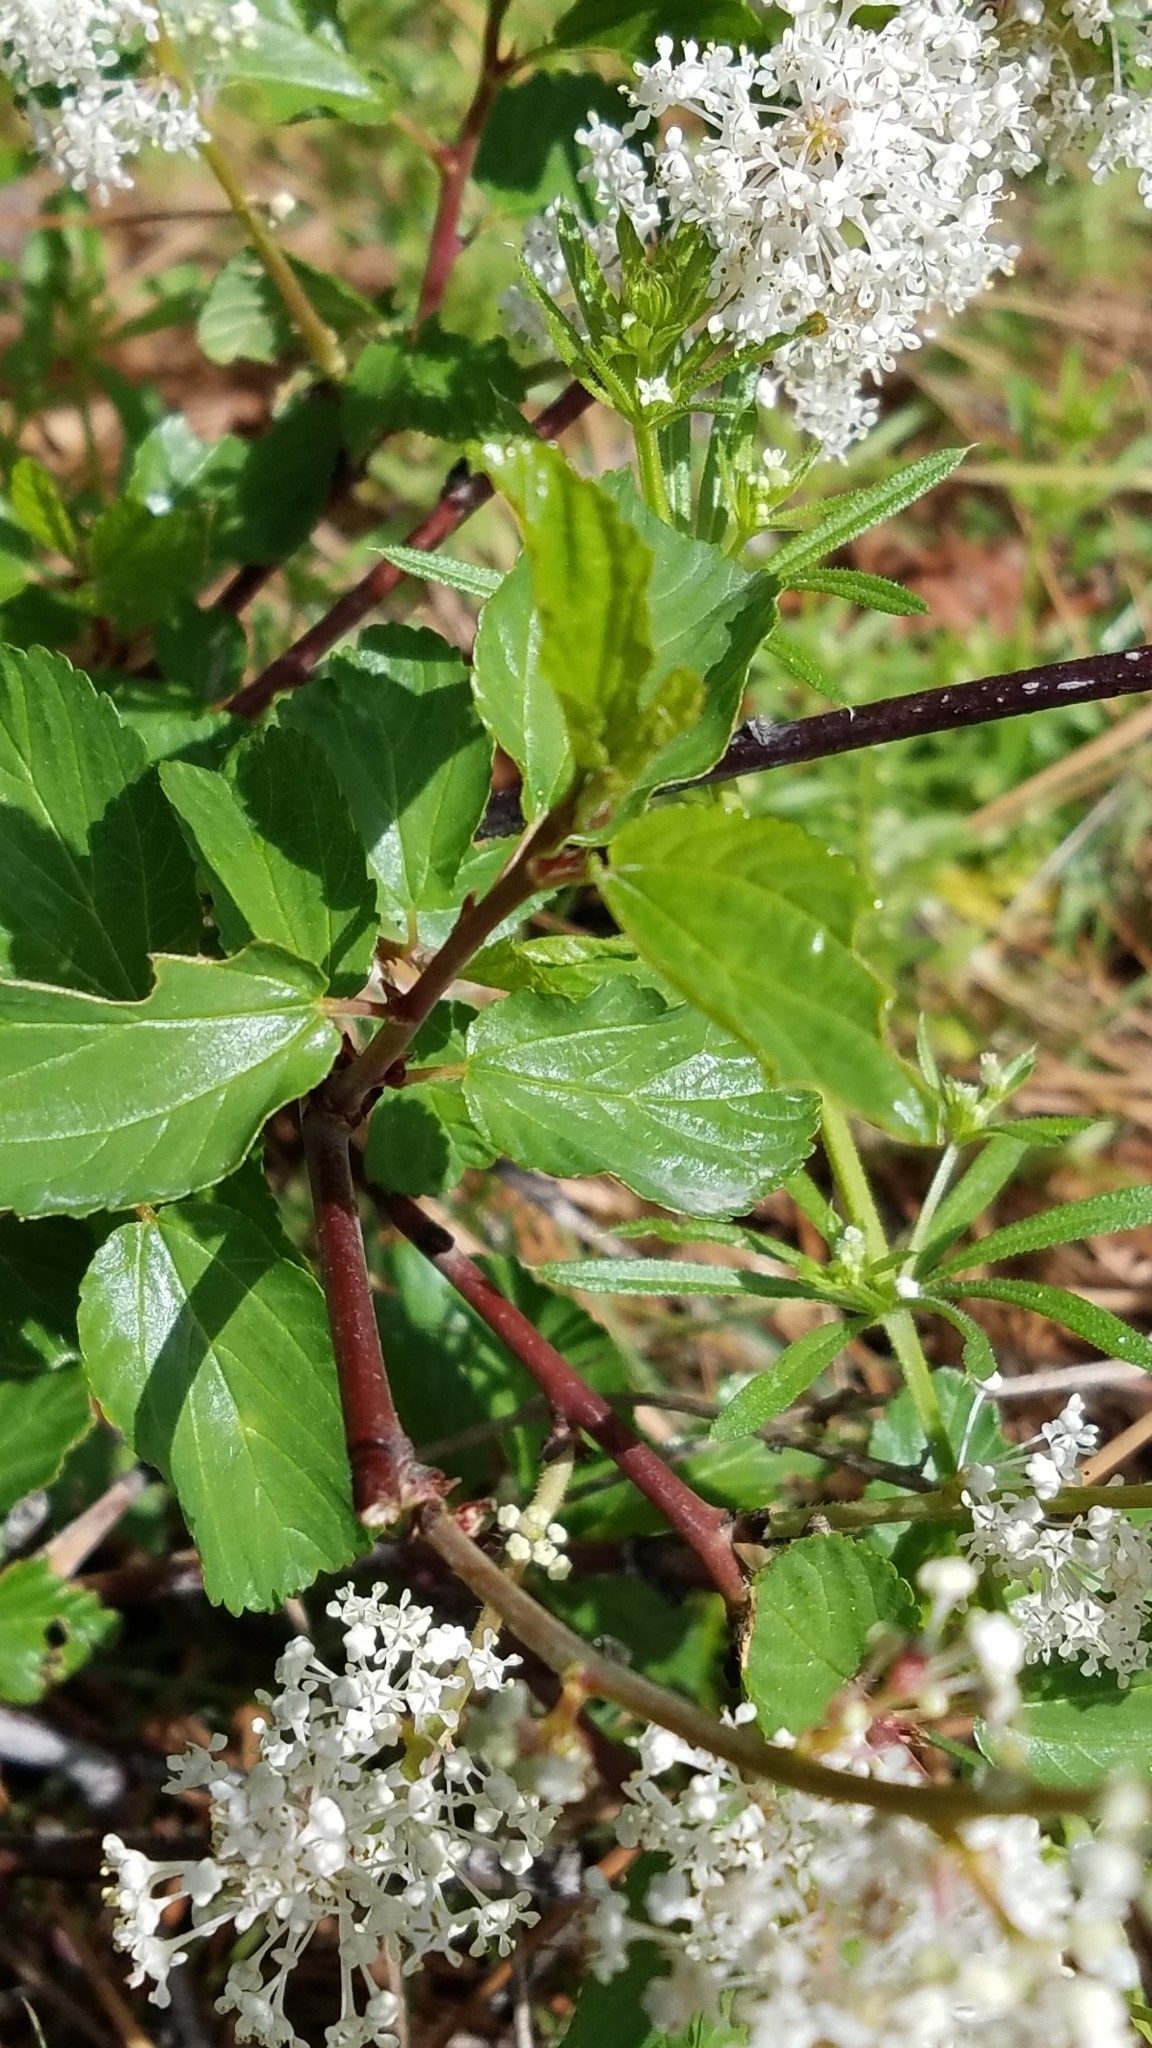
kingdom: Plantae
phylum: Tracheophyta
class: Magnoliopsida
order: Rosales
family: Rhamnaceae
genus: Ceanothus
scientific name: Ceanothus velutinus
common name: Snowbrush
